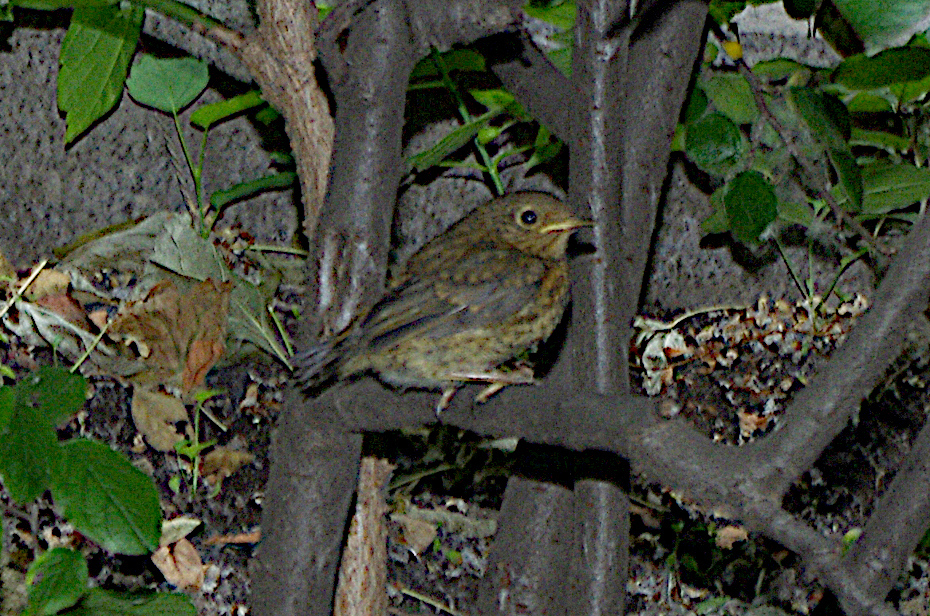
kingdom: Animalia
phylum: Chordata
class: Aves
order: Passeriformes
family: Muscicapidae
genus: Erithacus
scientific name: Erithacus rubecula
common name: European robin
